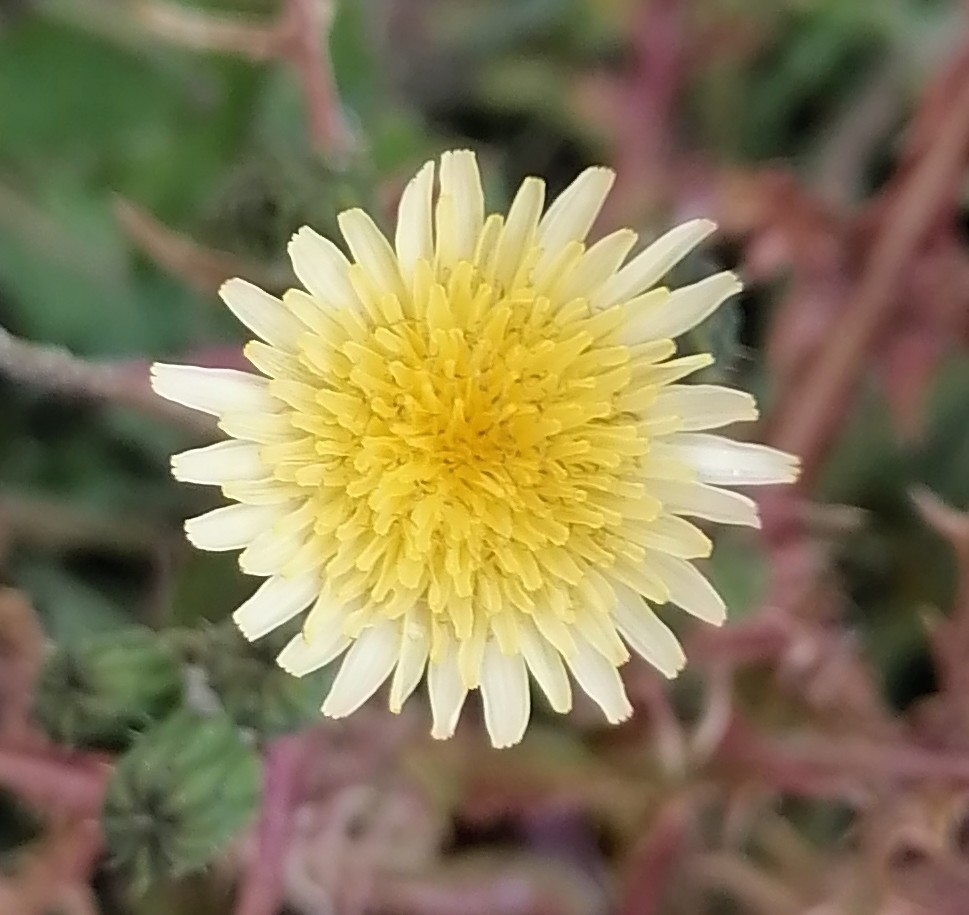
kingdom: Plantae
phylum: Tracheophyta
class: Magnoliopsida
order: Asterales
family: Asteraceae
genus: Sonchus
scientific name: Sonchus oleraceus
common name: Common sowthistle
